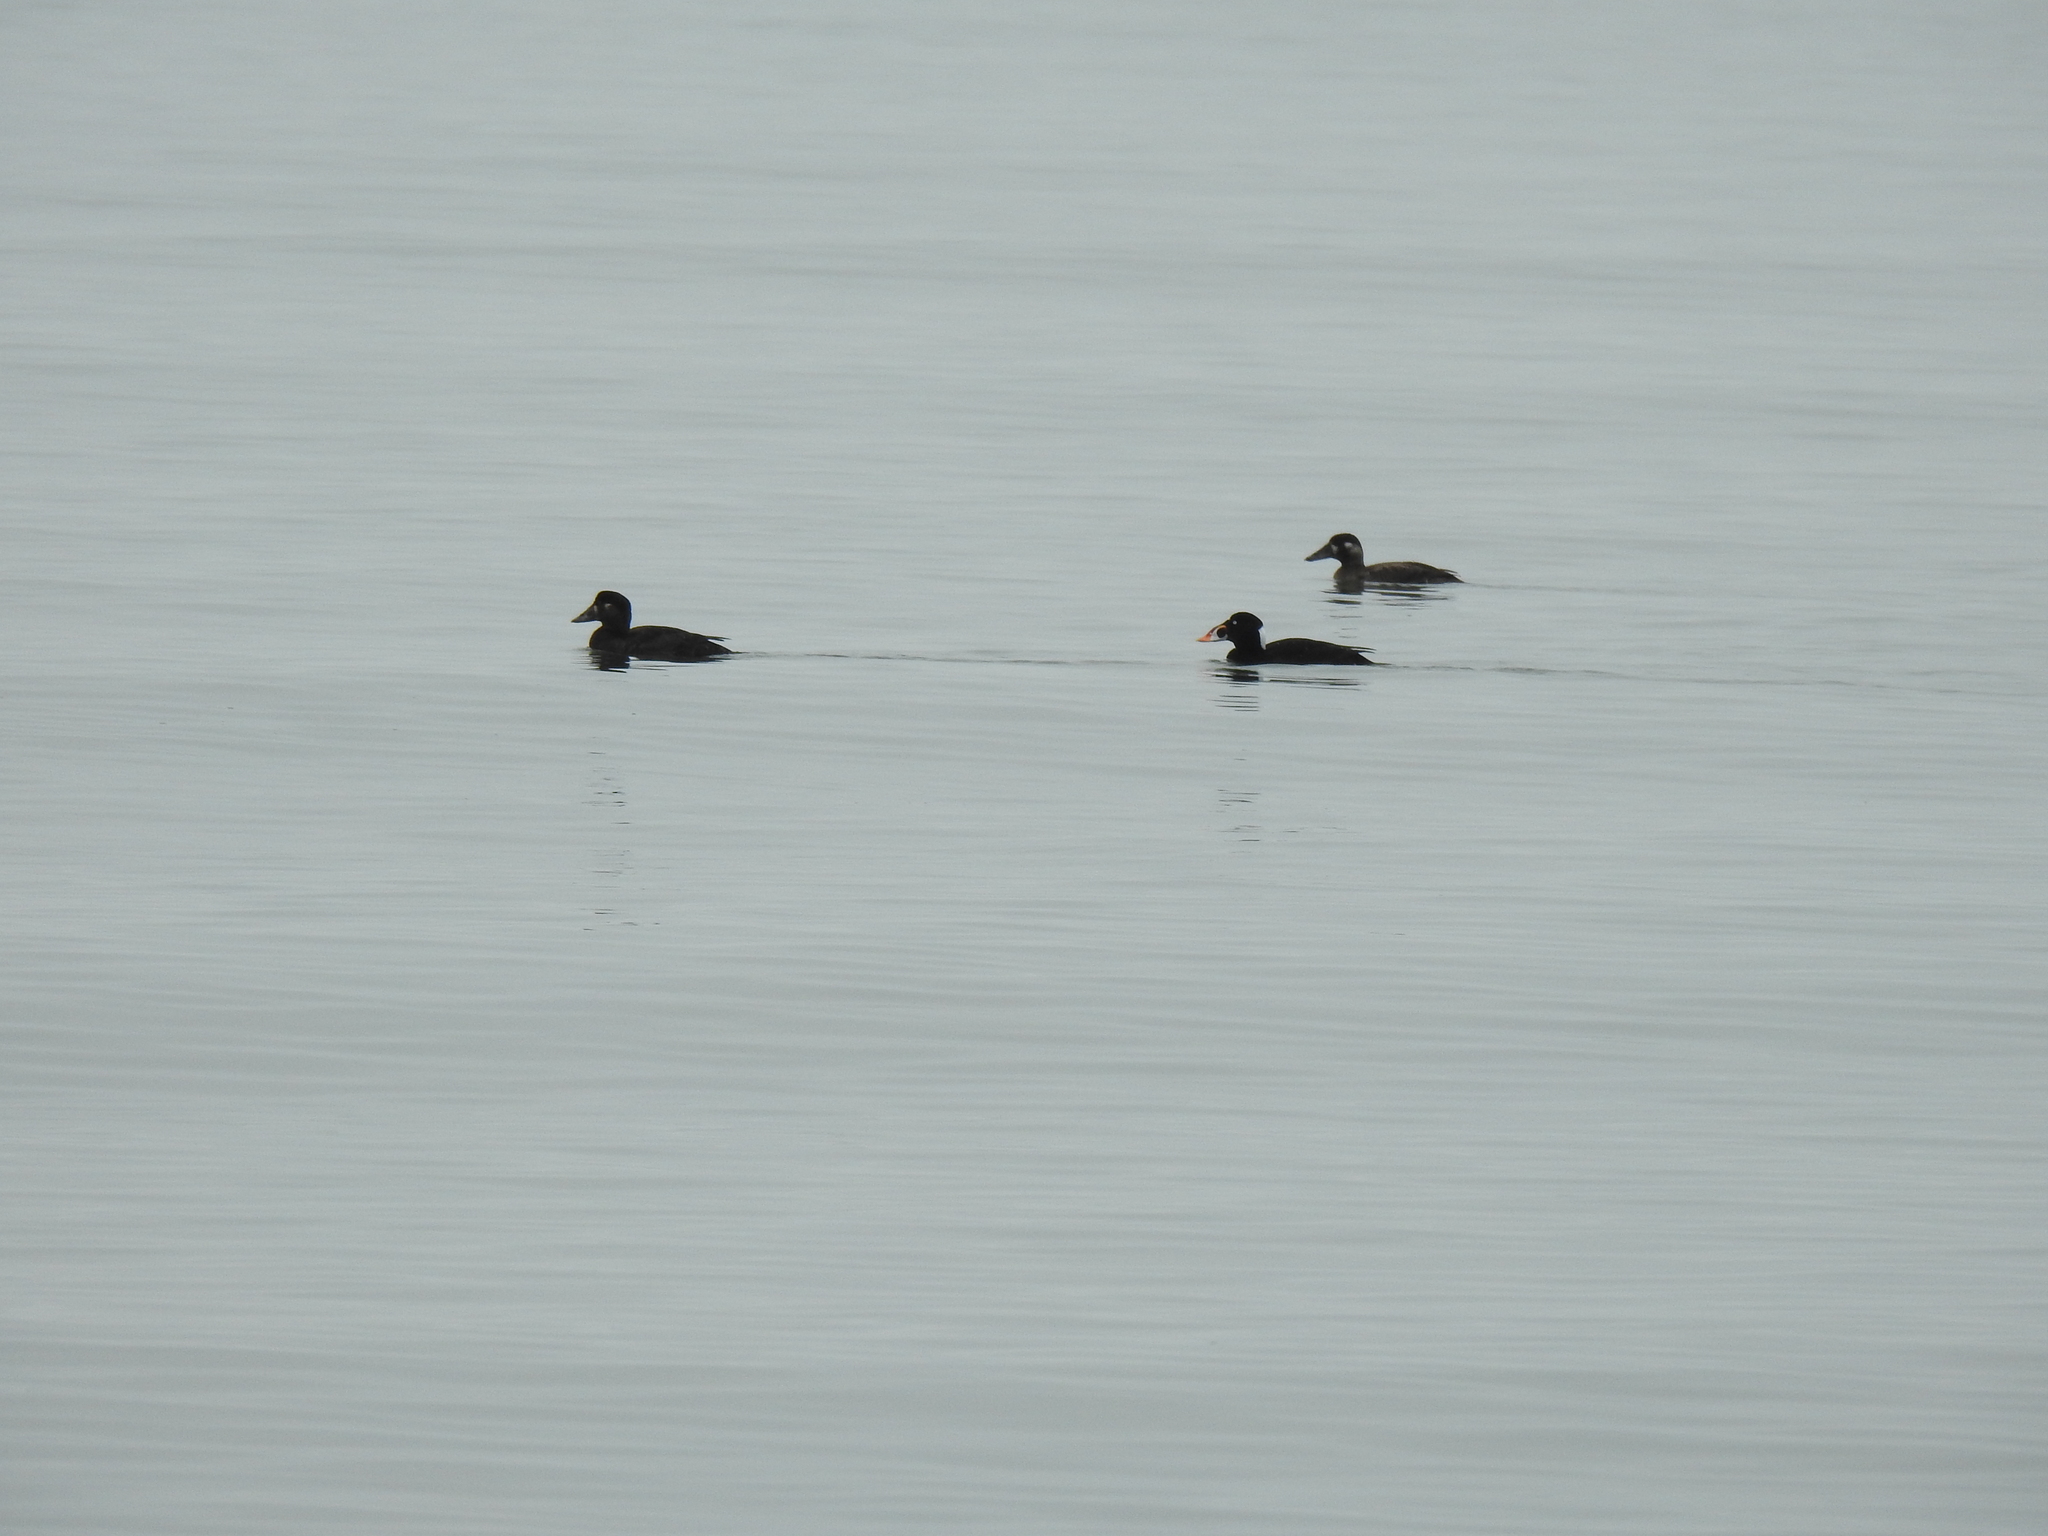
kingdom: Animalia
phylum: Chordata
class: Aves
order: Anseriformes
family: Anatidae
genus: Melanitta
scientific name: Melanitta perspicillata
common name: Surf scoter
